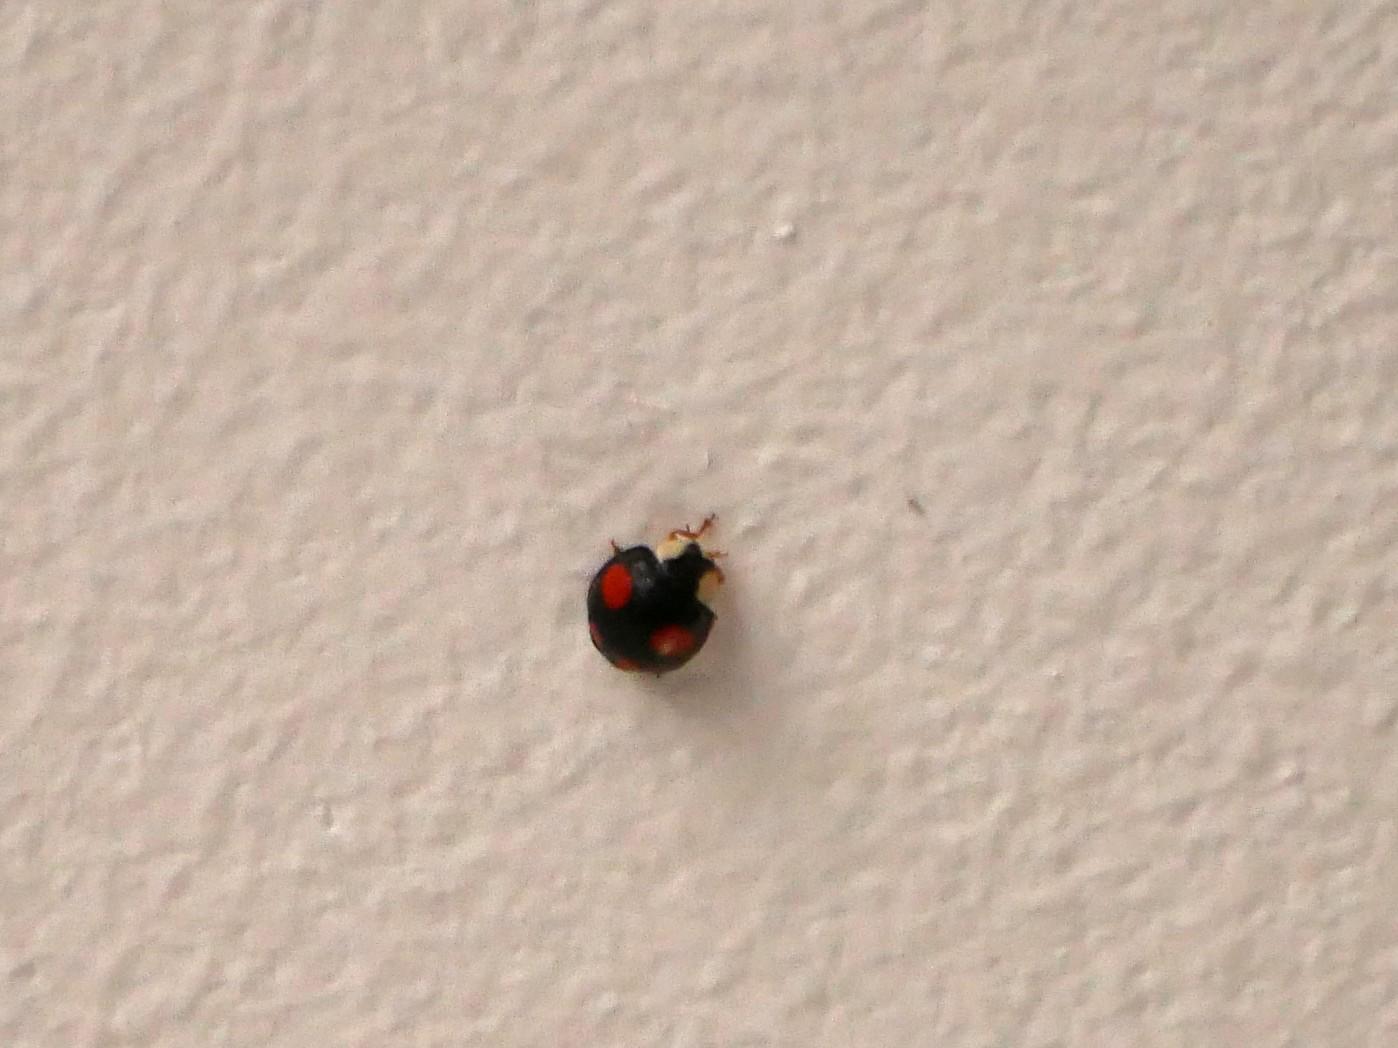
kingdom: Animalia
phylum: Arthropoda
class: Insecta
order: Coleoptera
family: Coccinellidae
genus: Harmonia
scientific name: Harmonia axyridis
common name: Harlequin ladybird
